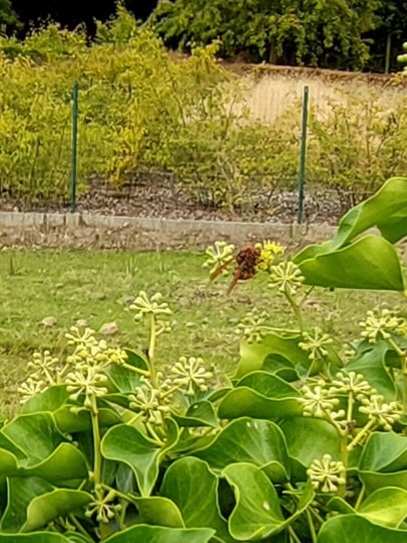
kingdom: Animalia
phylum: Arthropoda
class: Insecta
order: Hymenoptera
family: Vespidae
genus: Vespa
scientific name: Vespa crabro
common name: Hornet
